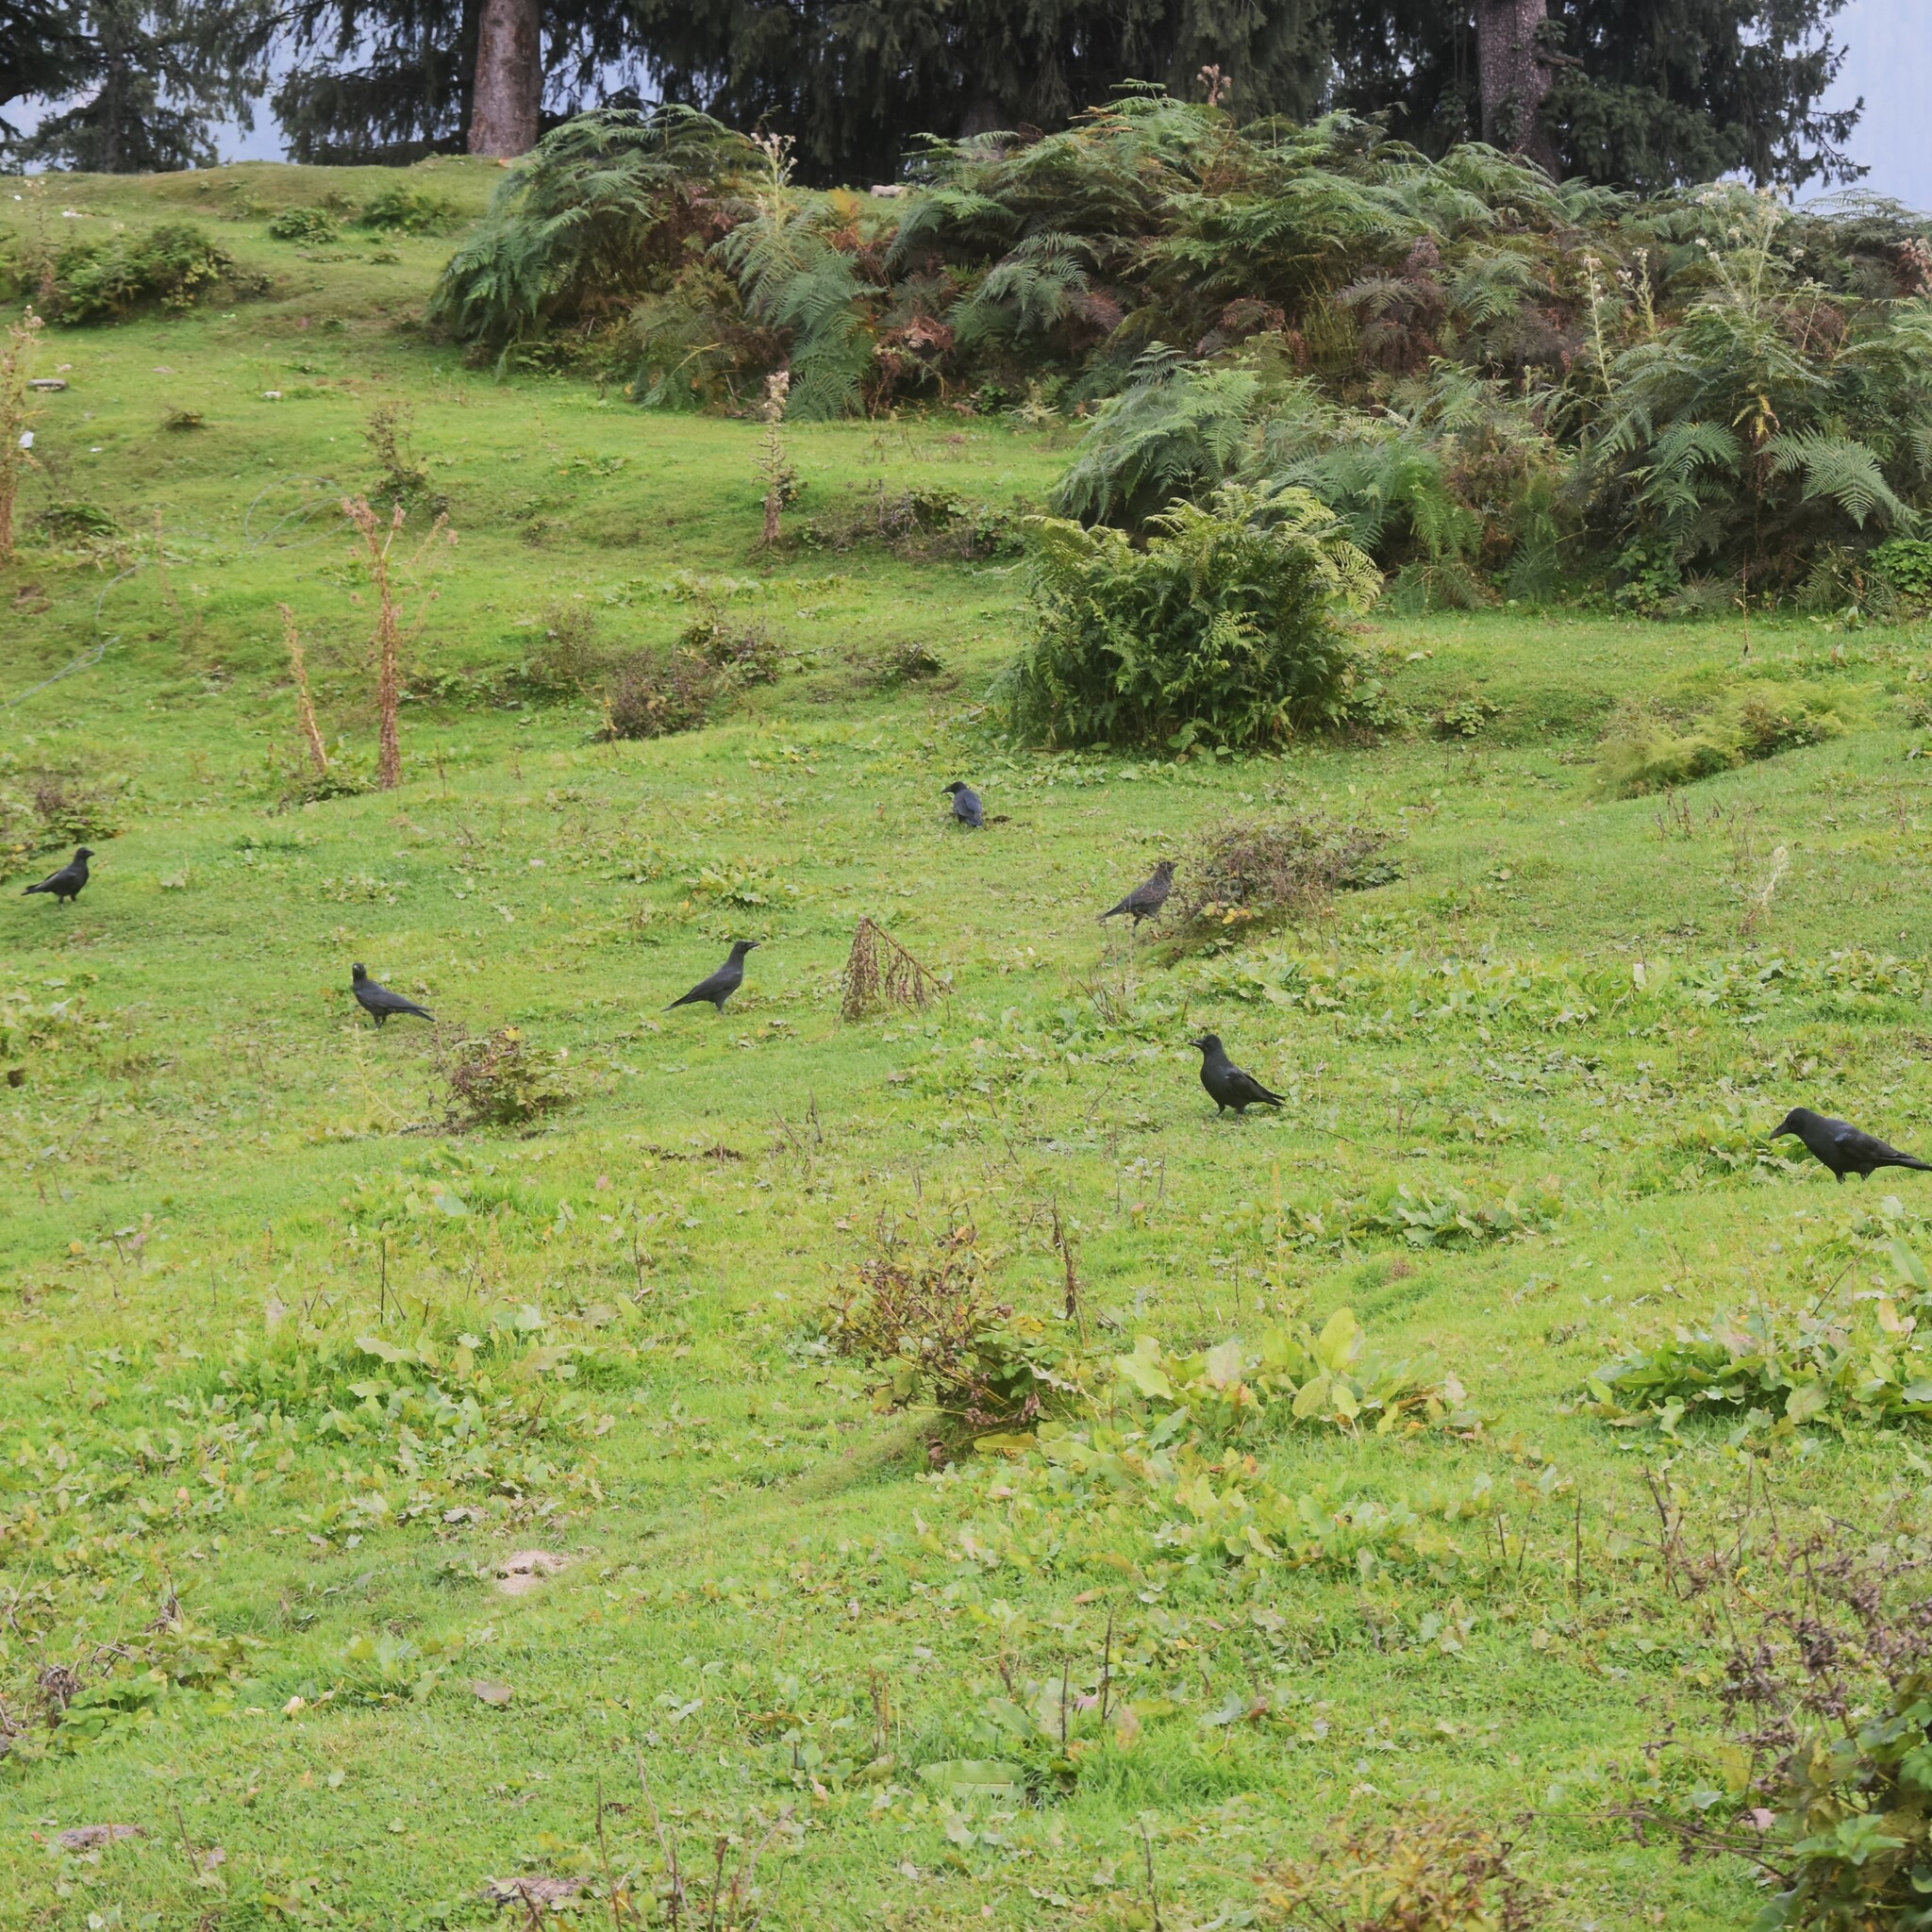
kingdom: Animalia
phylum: Chordata
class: Aves
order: Passeriformes
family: Corvidae
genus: Corvus
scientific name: Corvus macrorhynchos
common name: Large-billed crow
